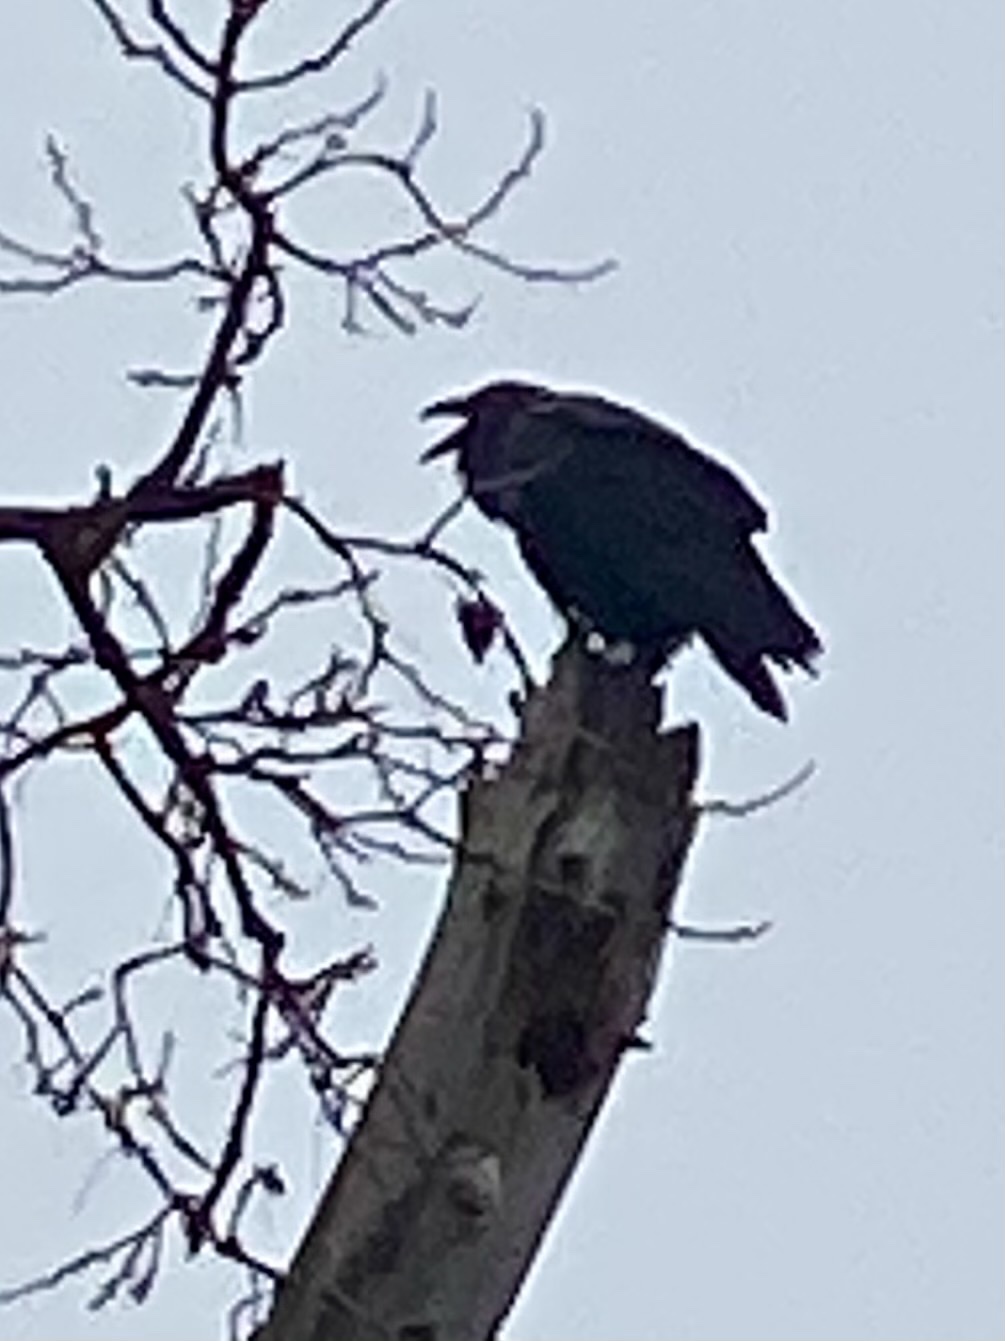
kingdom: Animalia
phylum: Chordata
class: Aves
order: Passeriformes
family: Corvidae
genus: Corvus
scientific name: Corvus corax
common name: Common raven
